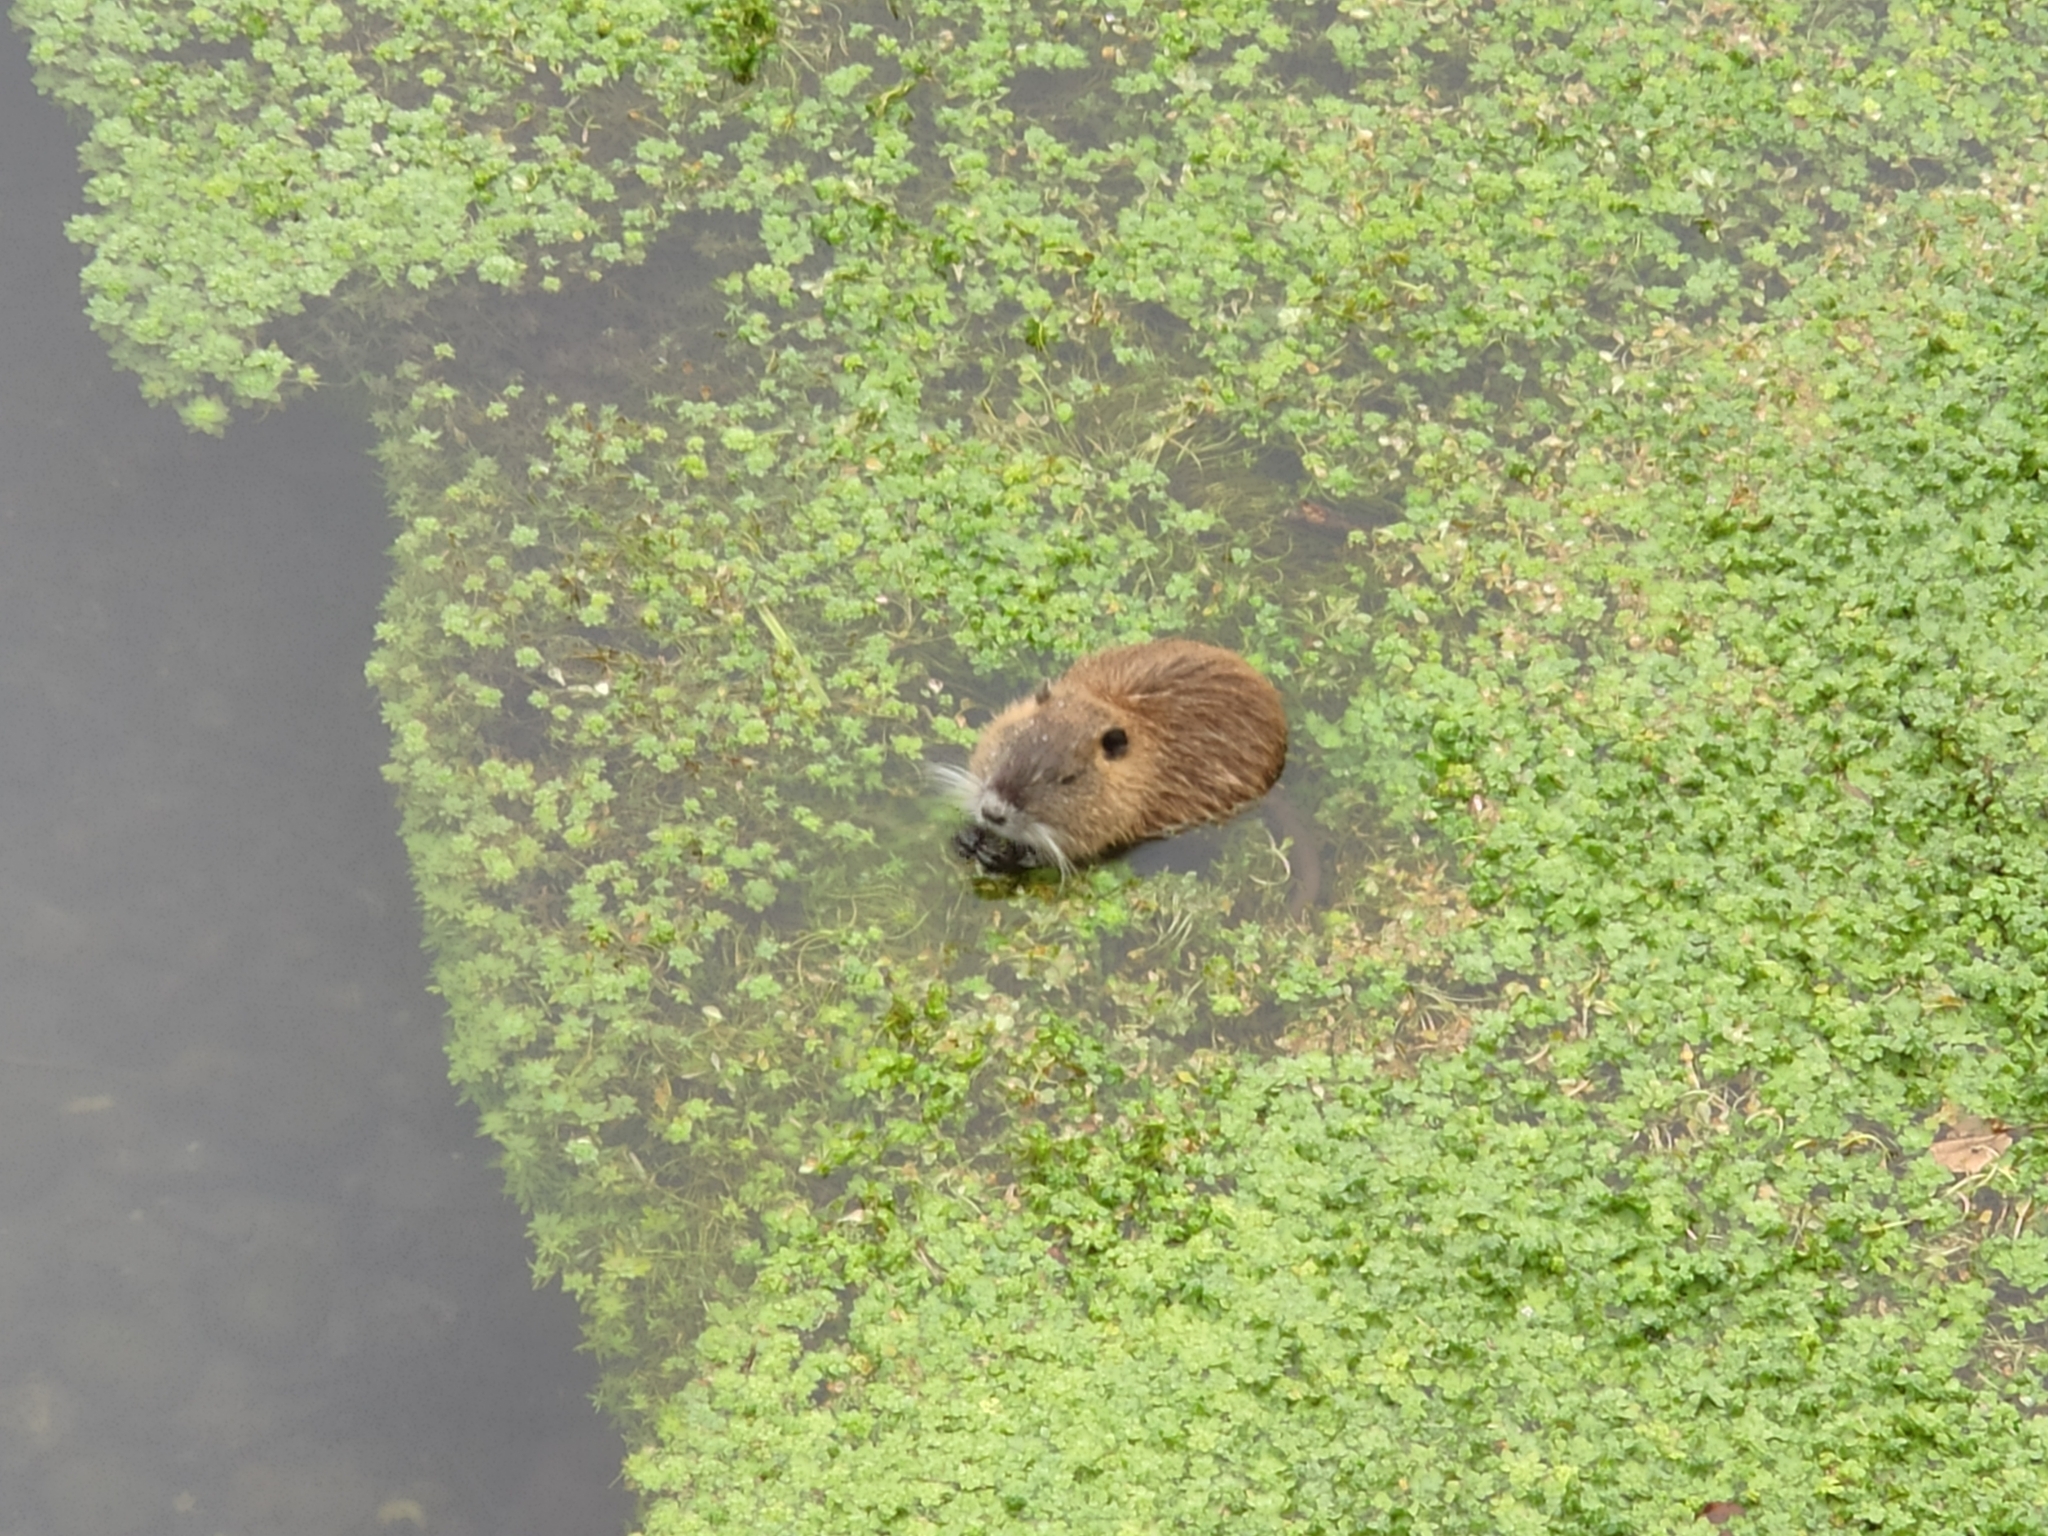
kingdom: Animalia
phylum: Chordata
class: Mammalia
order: Rodentia
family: Myocastoridae
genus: Myocastor
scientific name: Myocastor coypus
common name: Coypu
